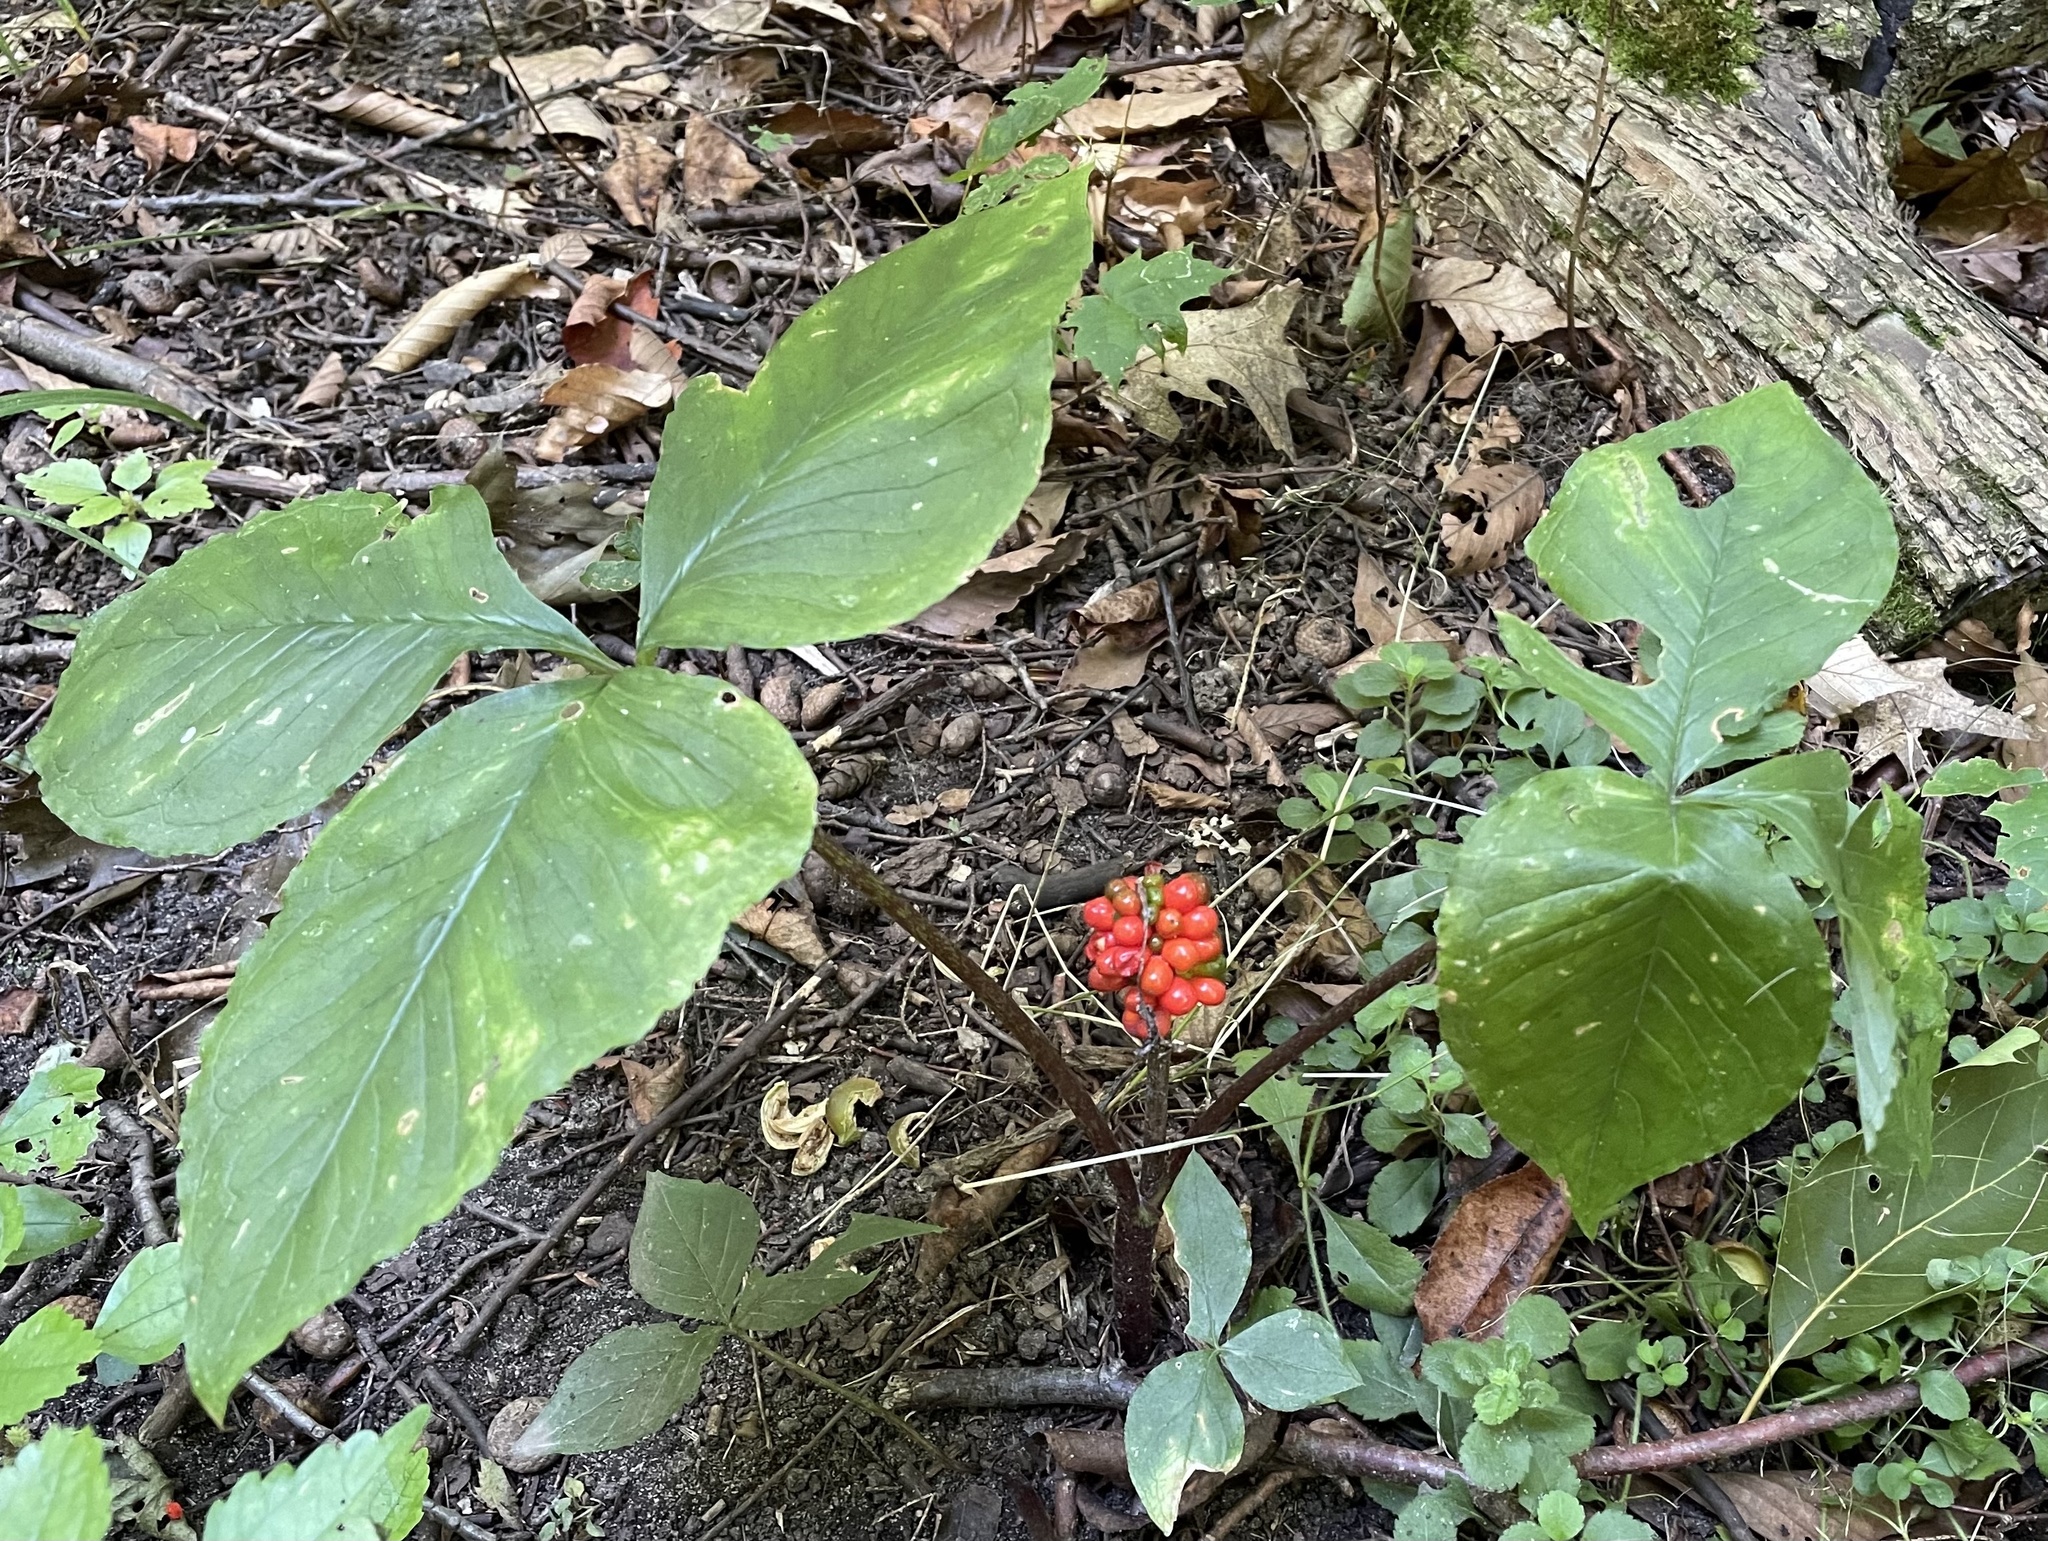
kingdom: Plantae
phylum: Tracheophyta
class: Liliopsida
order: Alismatales
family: Araceae
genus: Arisaema
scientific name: Arisaema triphyllum
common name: Jack-in-the-pulpit
